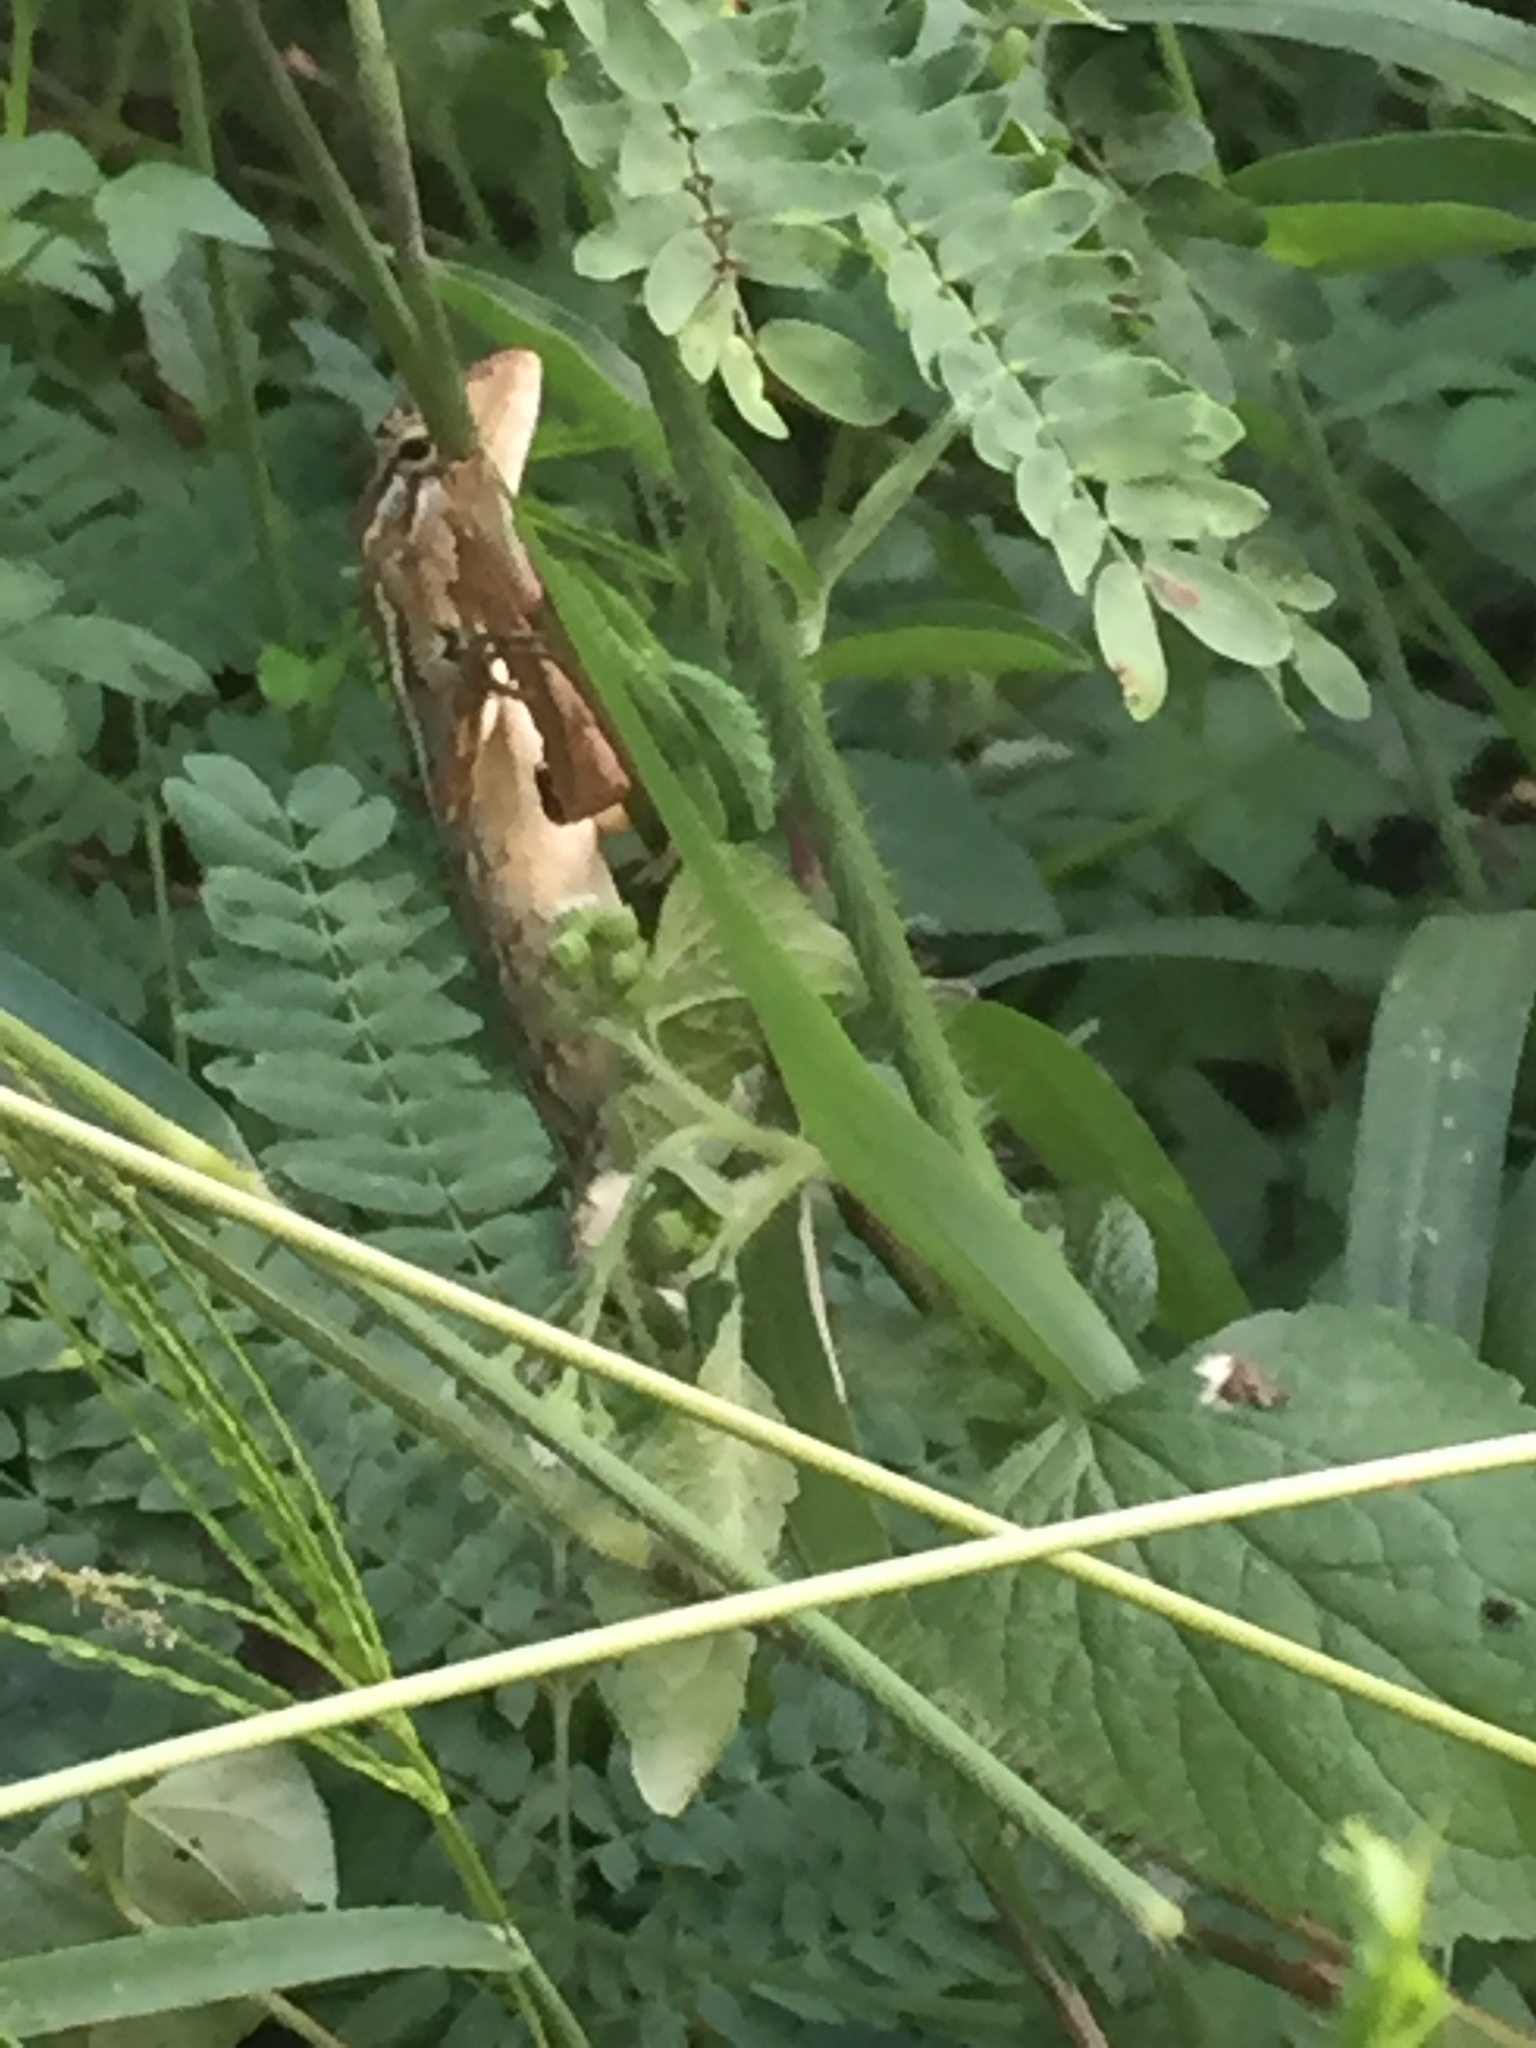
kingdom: Animalia
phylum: Chordata
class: Squamata
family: Agamidae
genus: Calotes
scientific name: Calotes versicolor
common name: Oriental garden lizard
